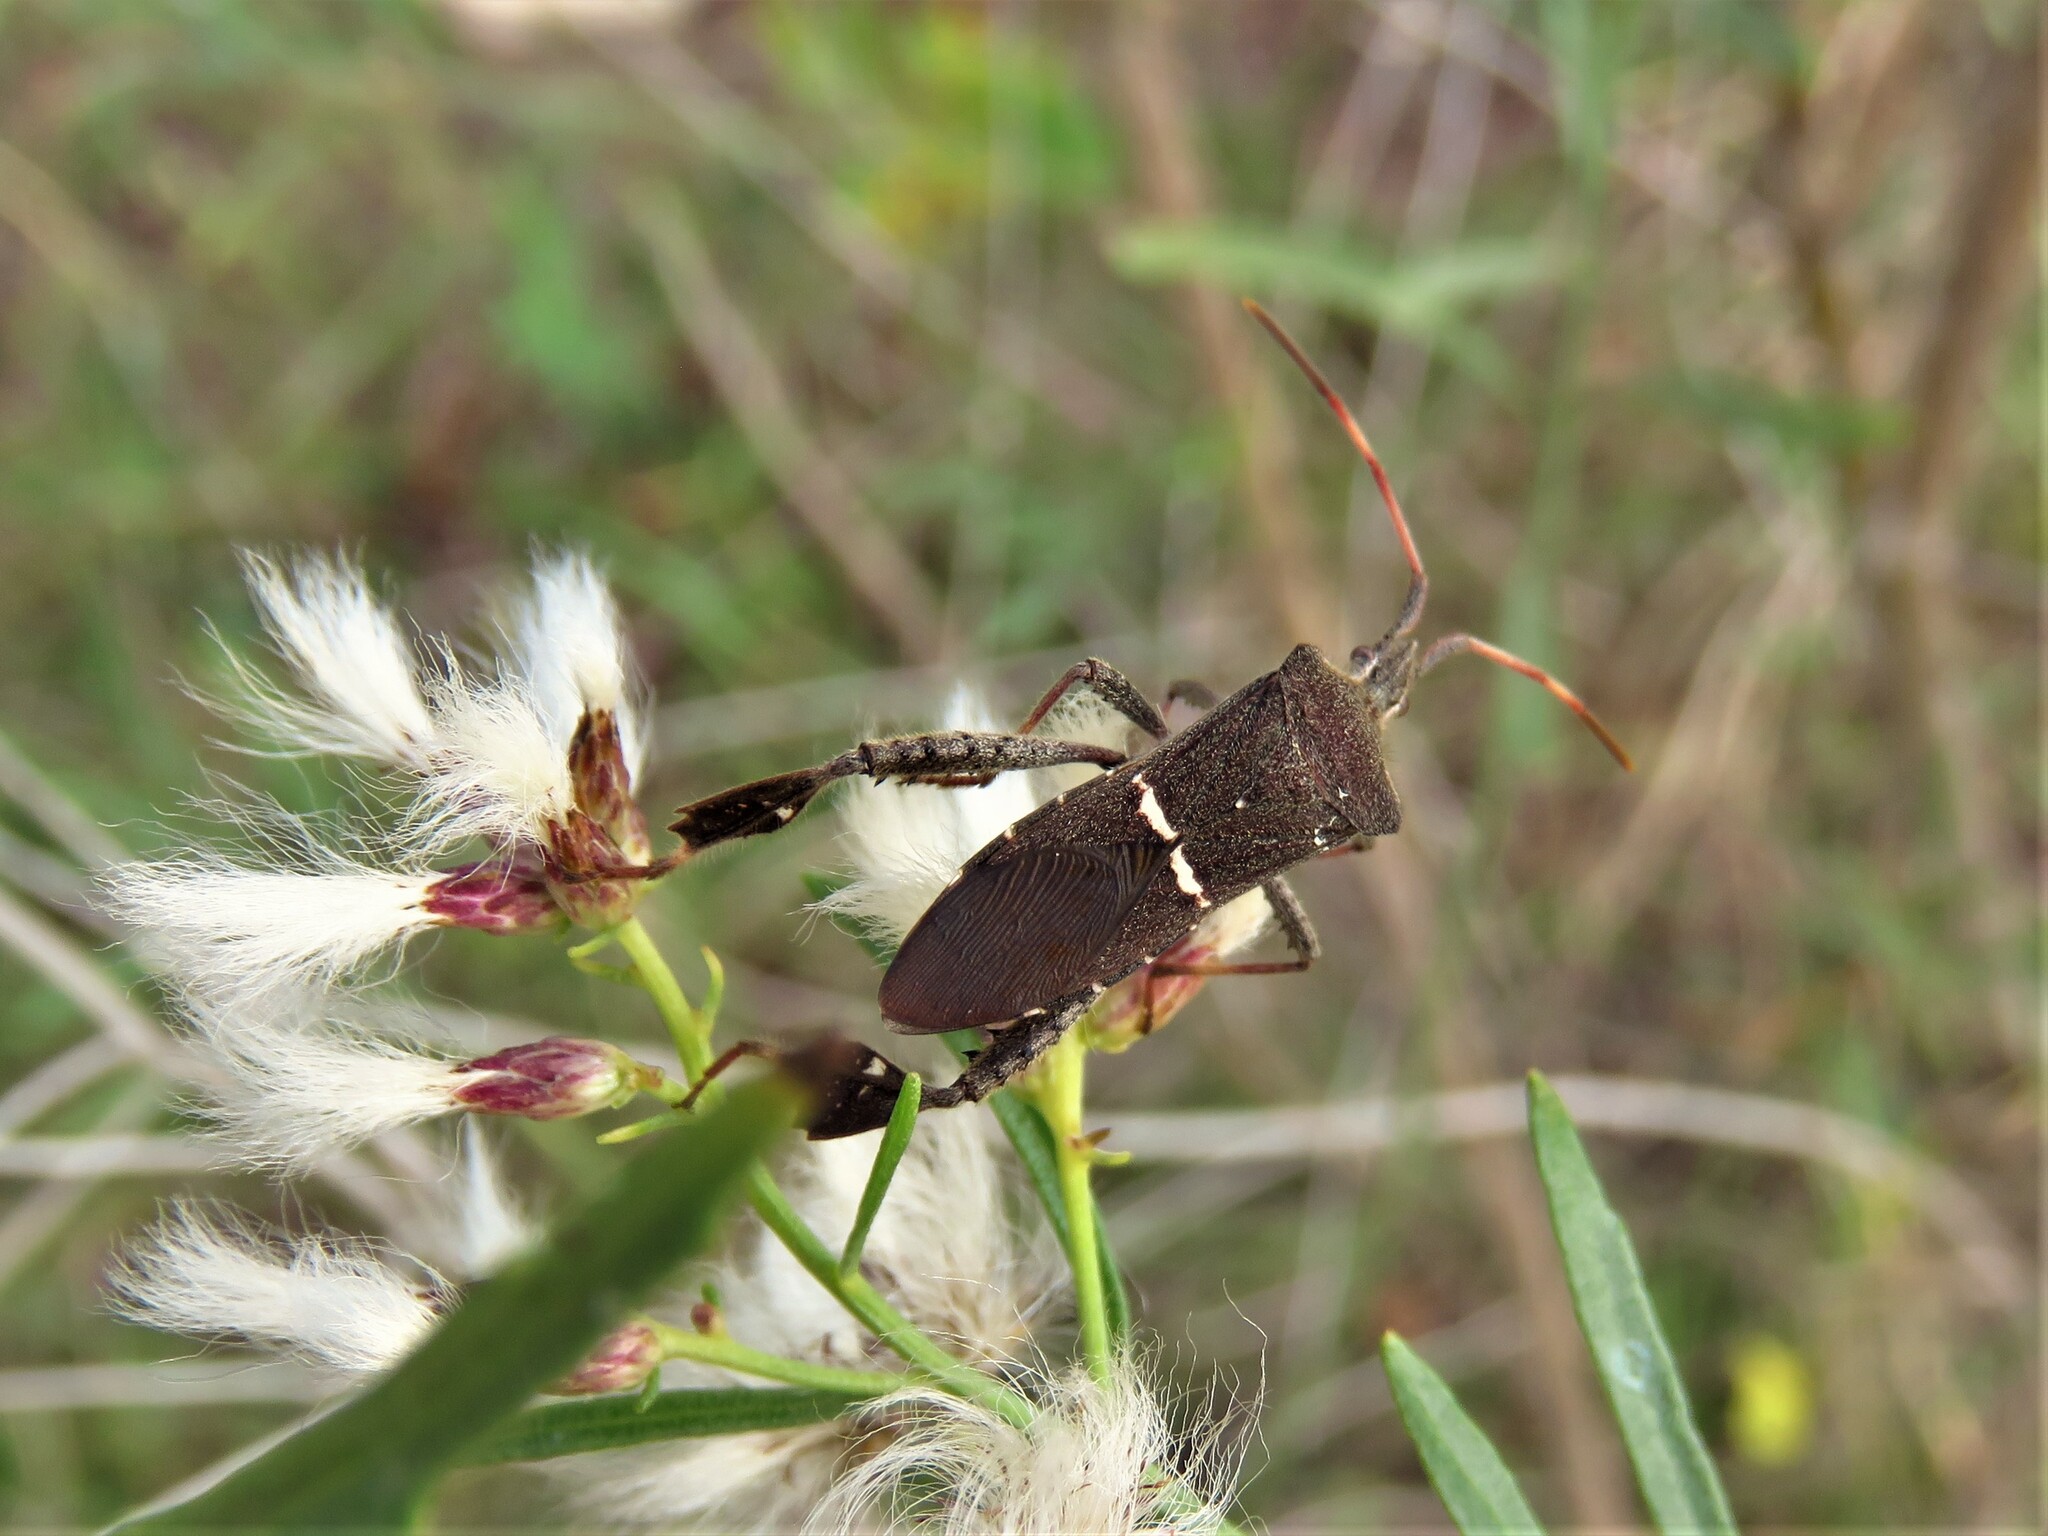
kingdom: Animalia
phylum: Arthropoda
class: Insecta
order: Hemiptera
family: Coreidae
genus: Leptoglossus
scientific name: Leptoglossus phyllopus
